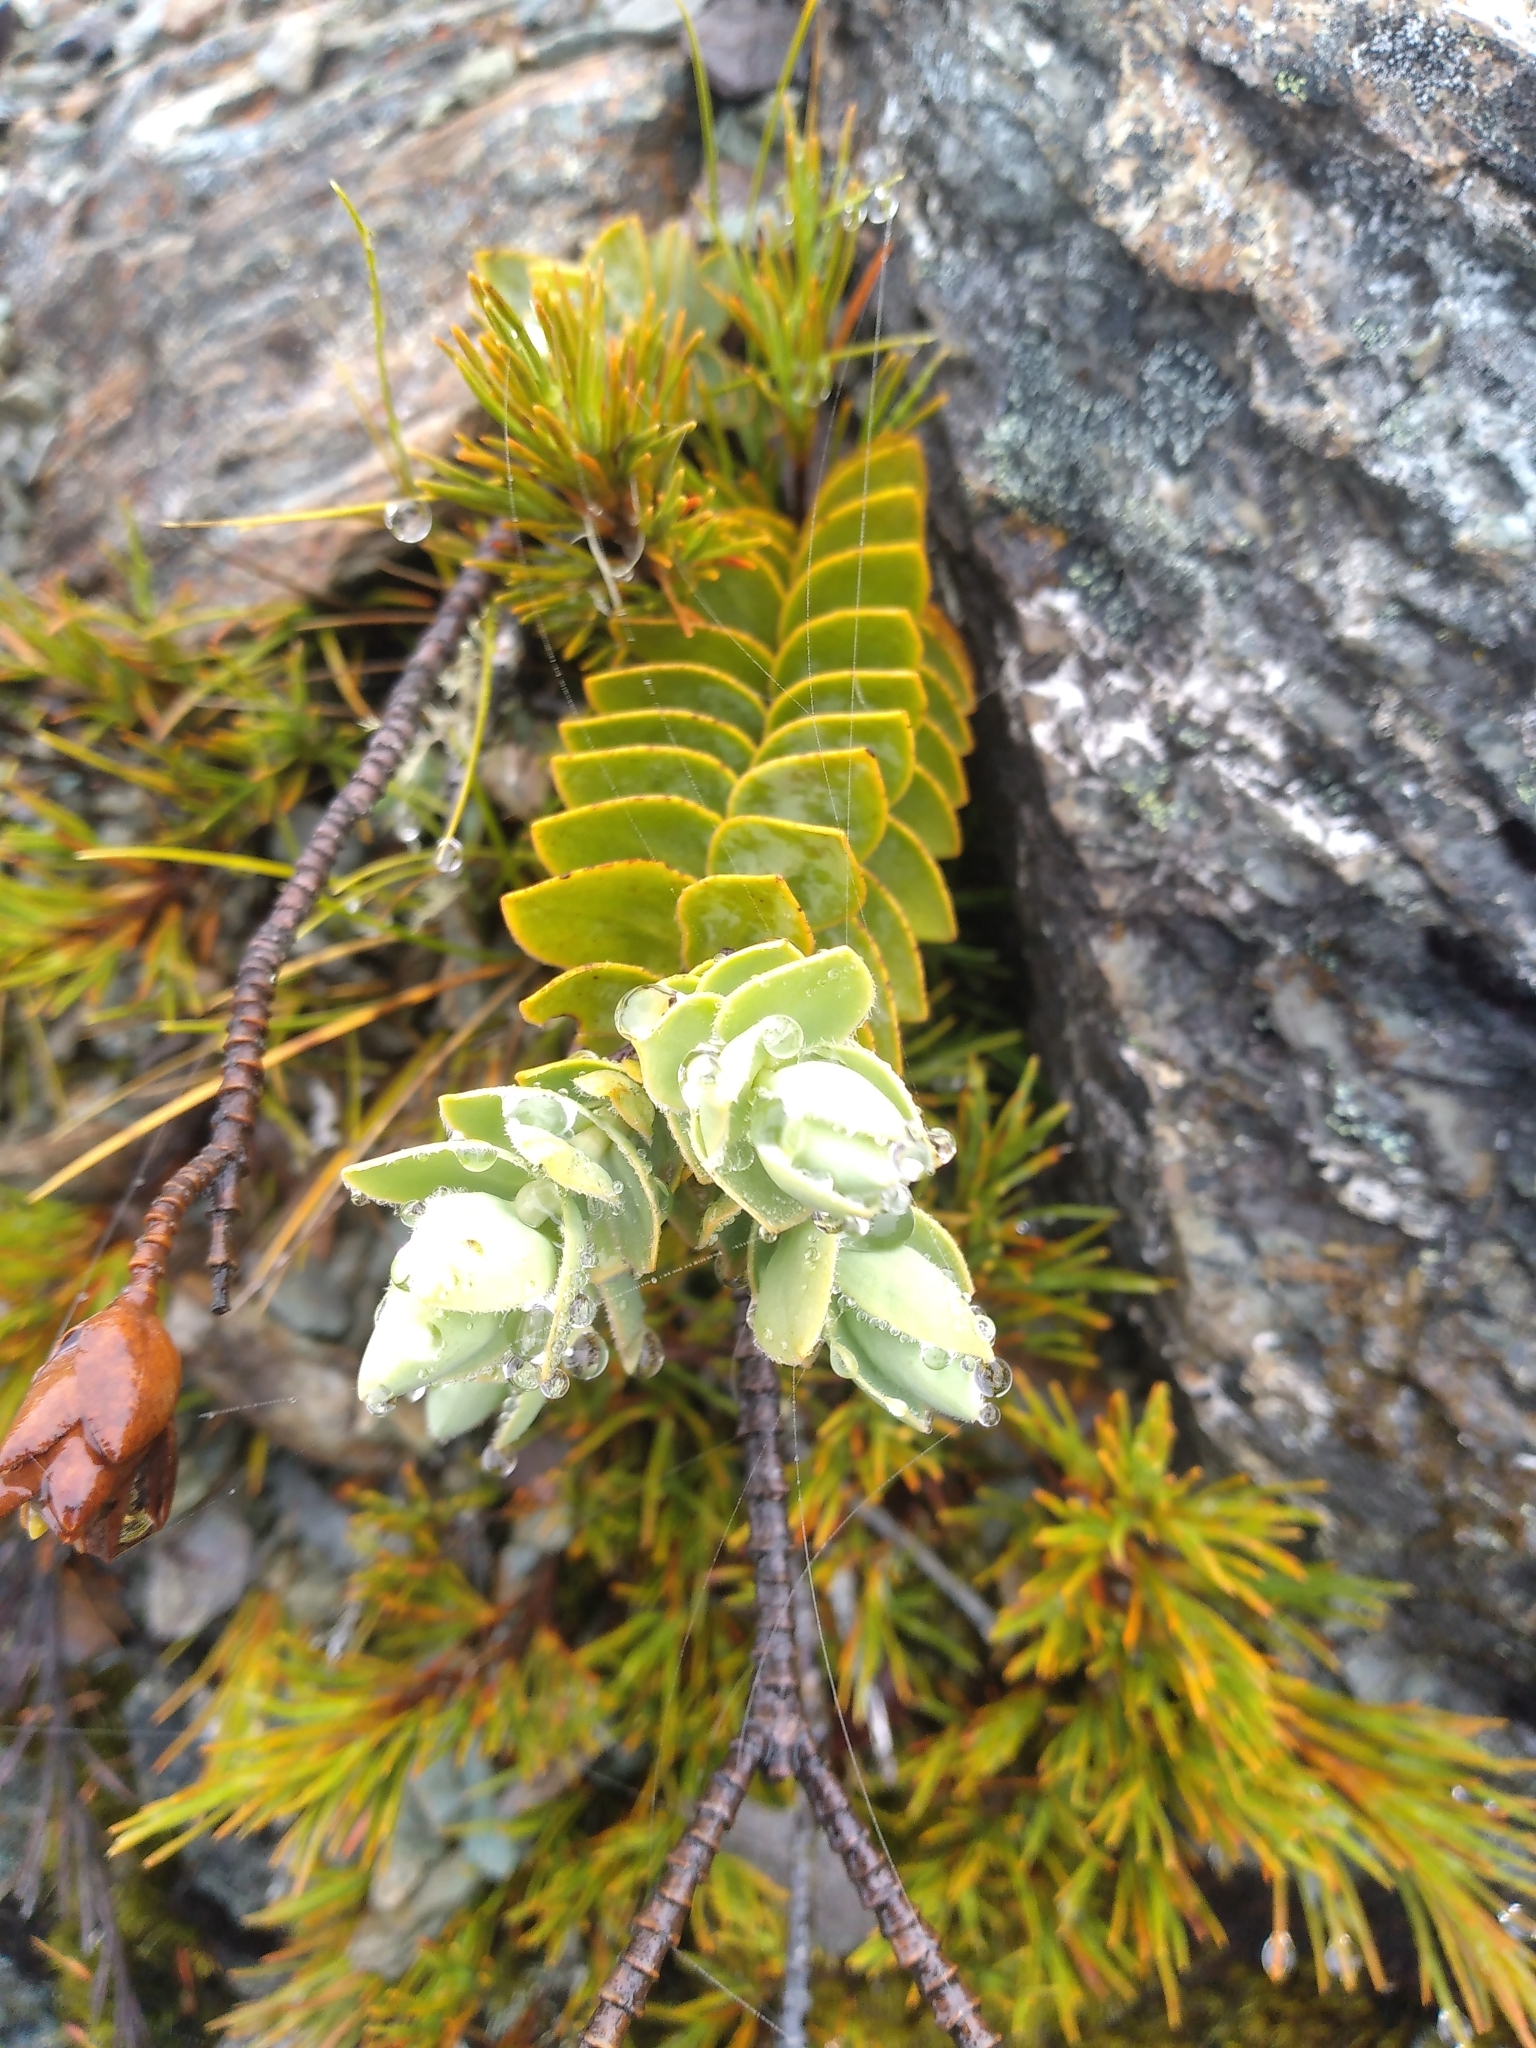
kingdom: Plantae
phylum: Tracheophyta
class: Magnoliopsida
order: Lamiales
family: Plantaginaceae
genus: Veronica
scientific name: Veronica gibbsii
